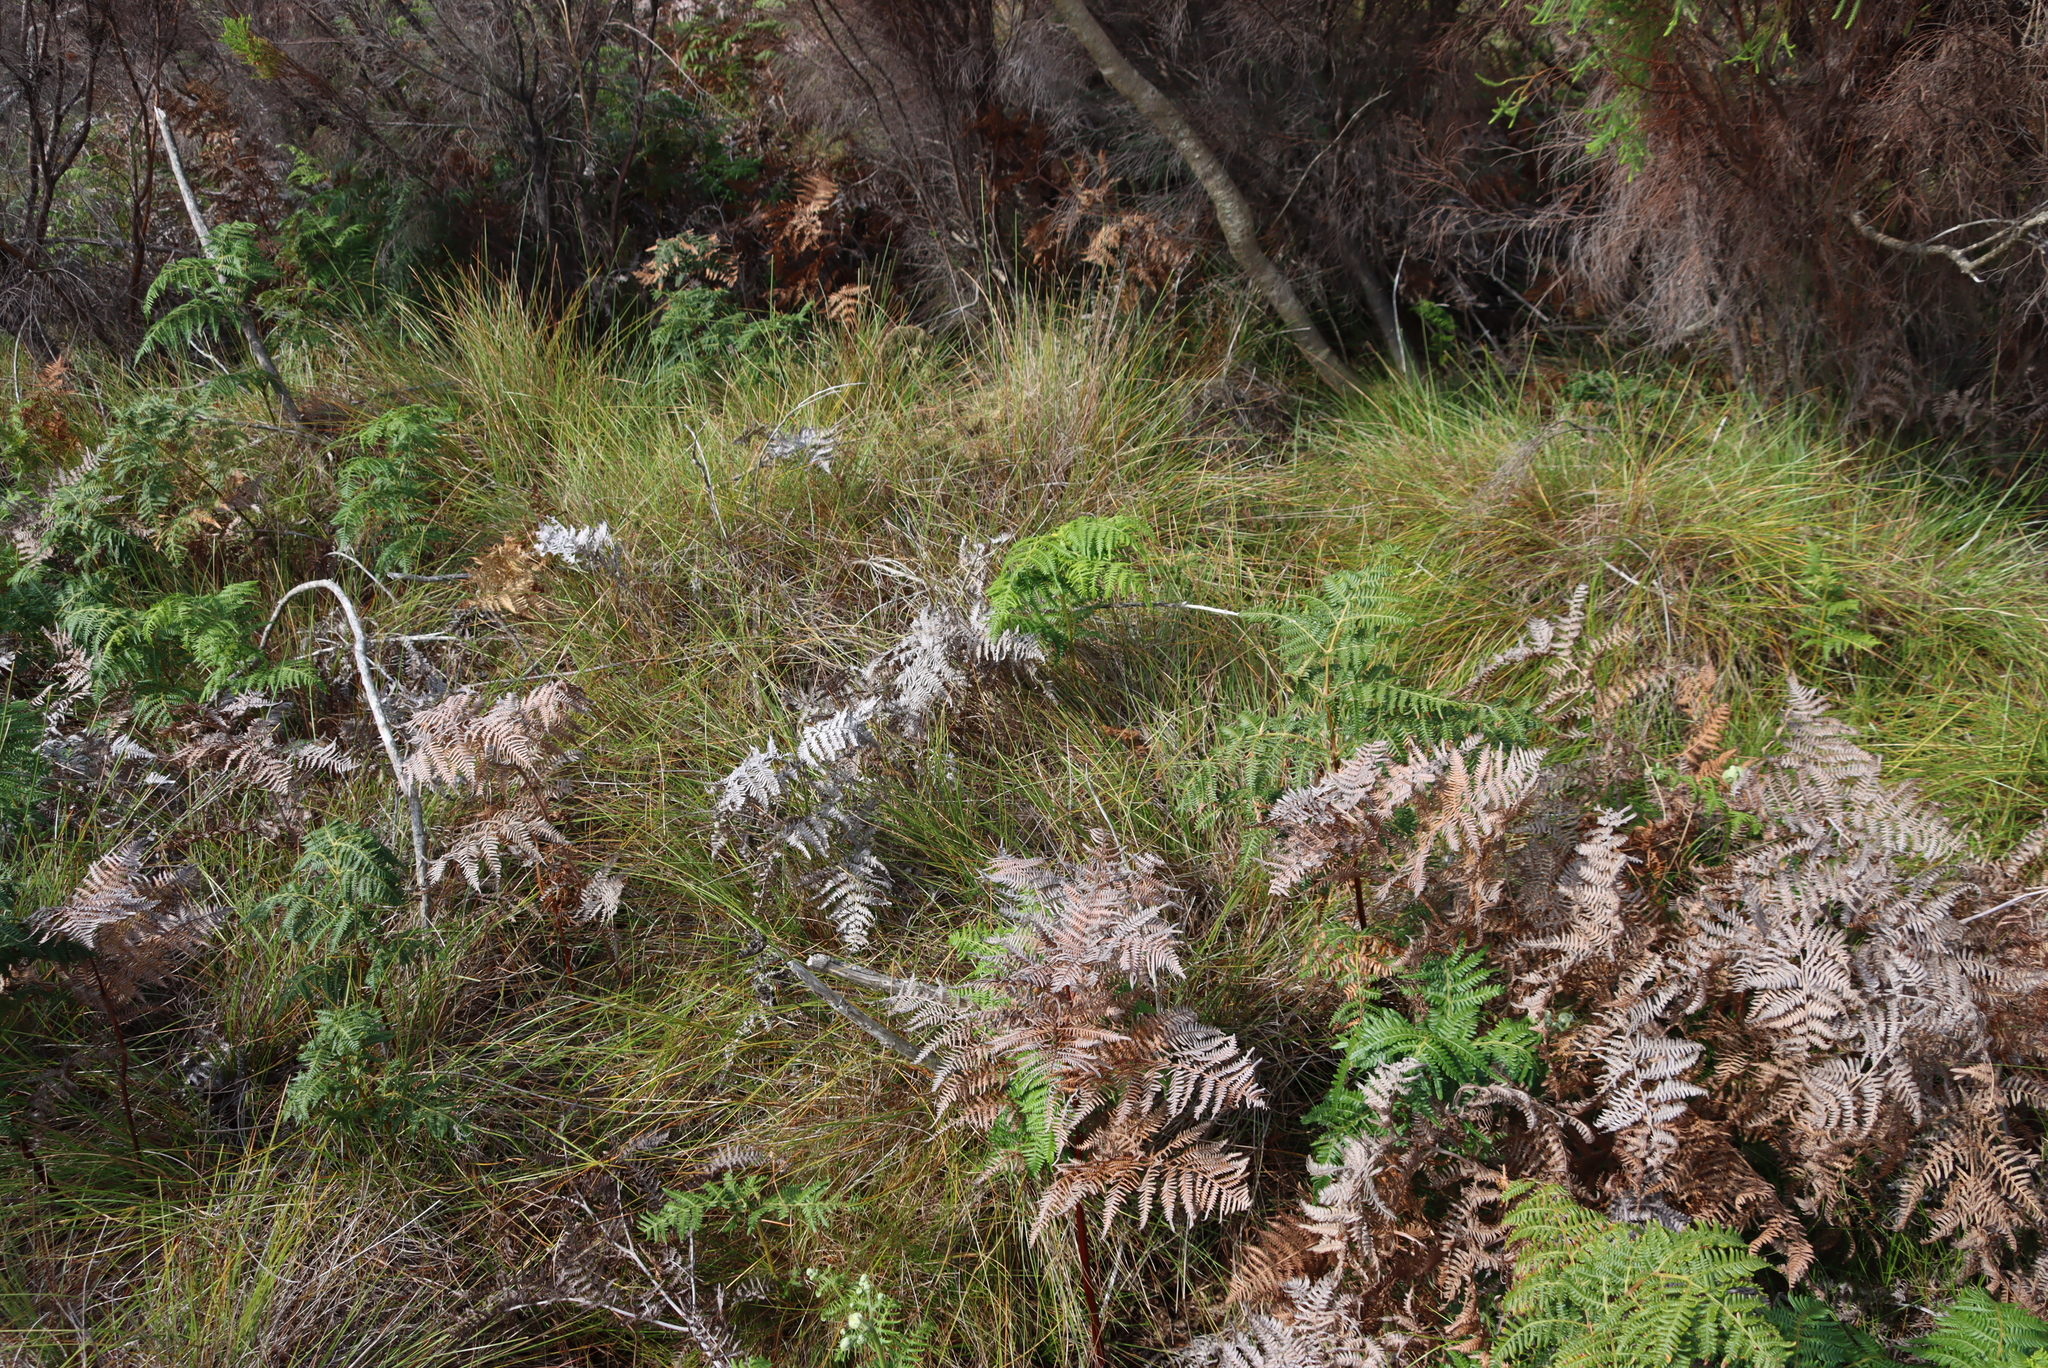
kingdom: Plantae
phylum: Tracheophyta
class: Polypodiopsida
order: Polypodiales
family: Dennstaedtiaceae
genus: Pteridium
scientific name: Pteridium aquilinum
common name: Bracken
